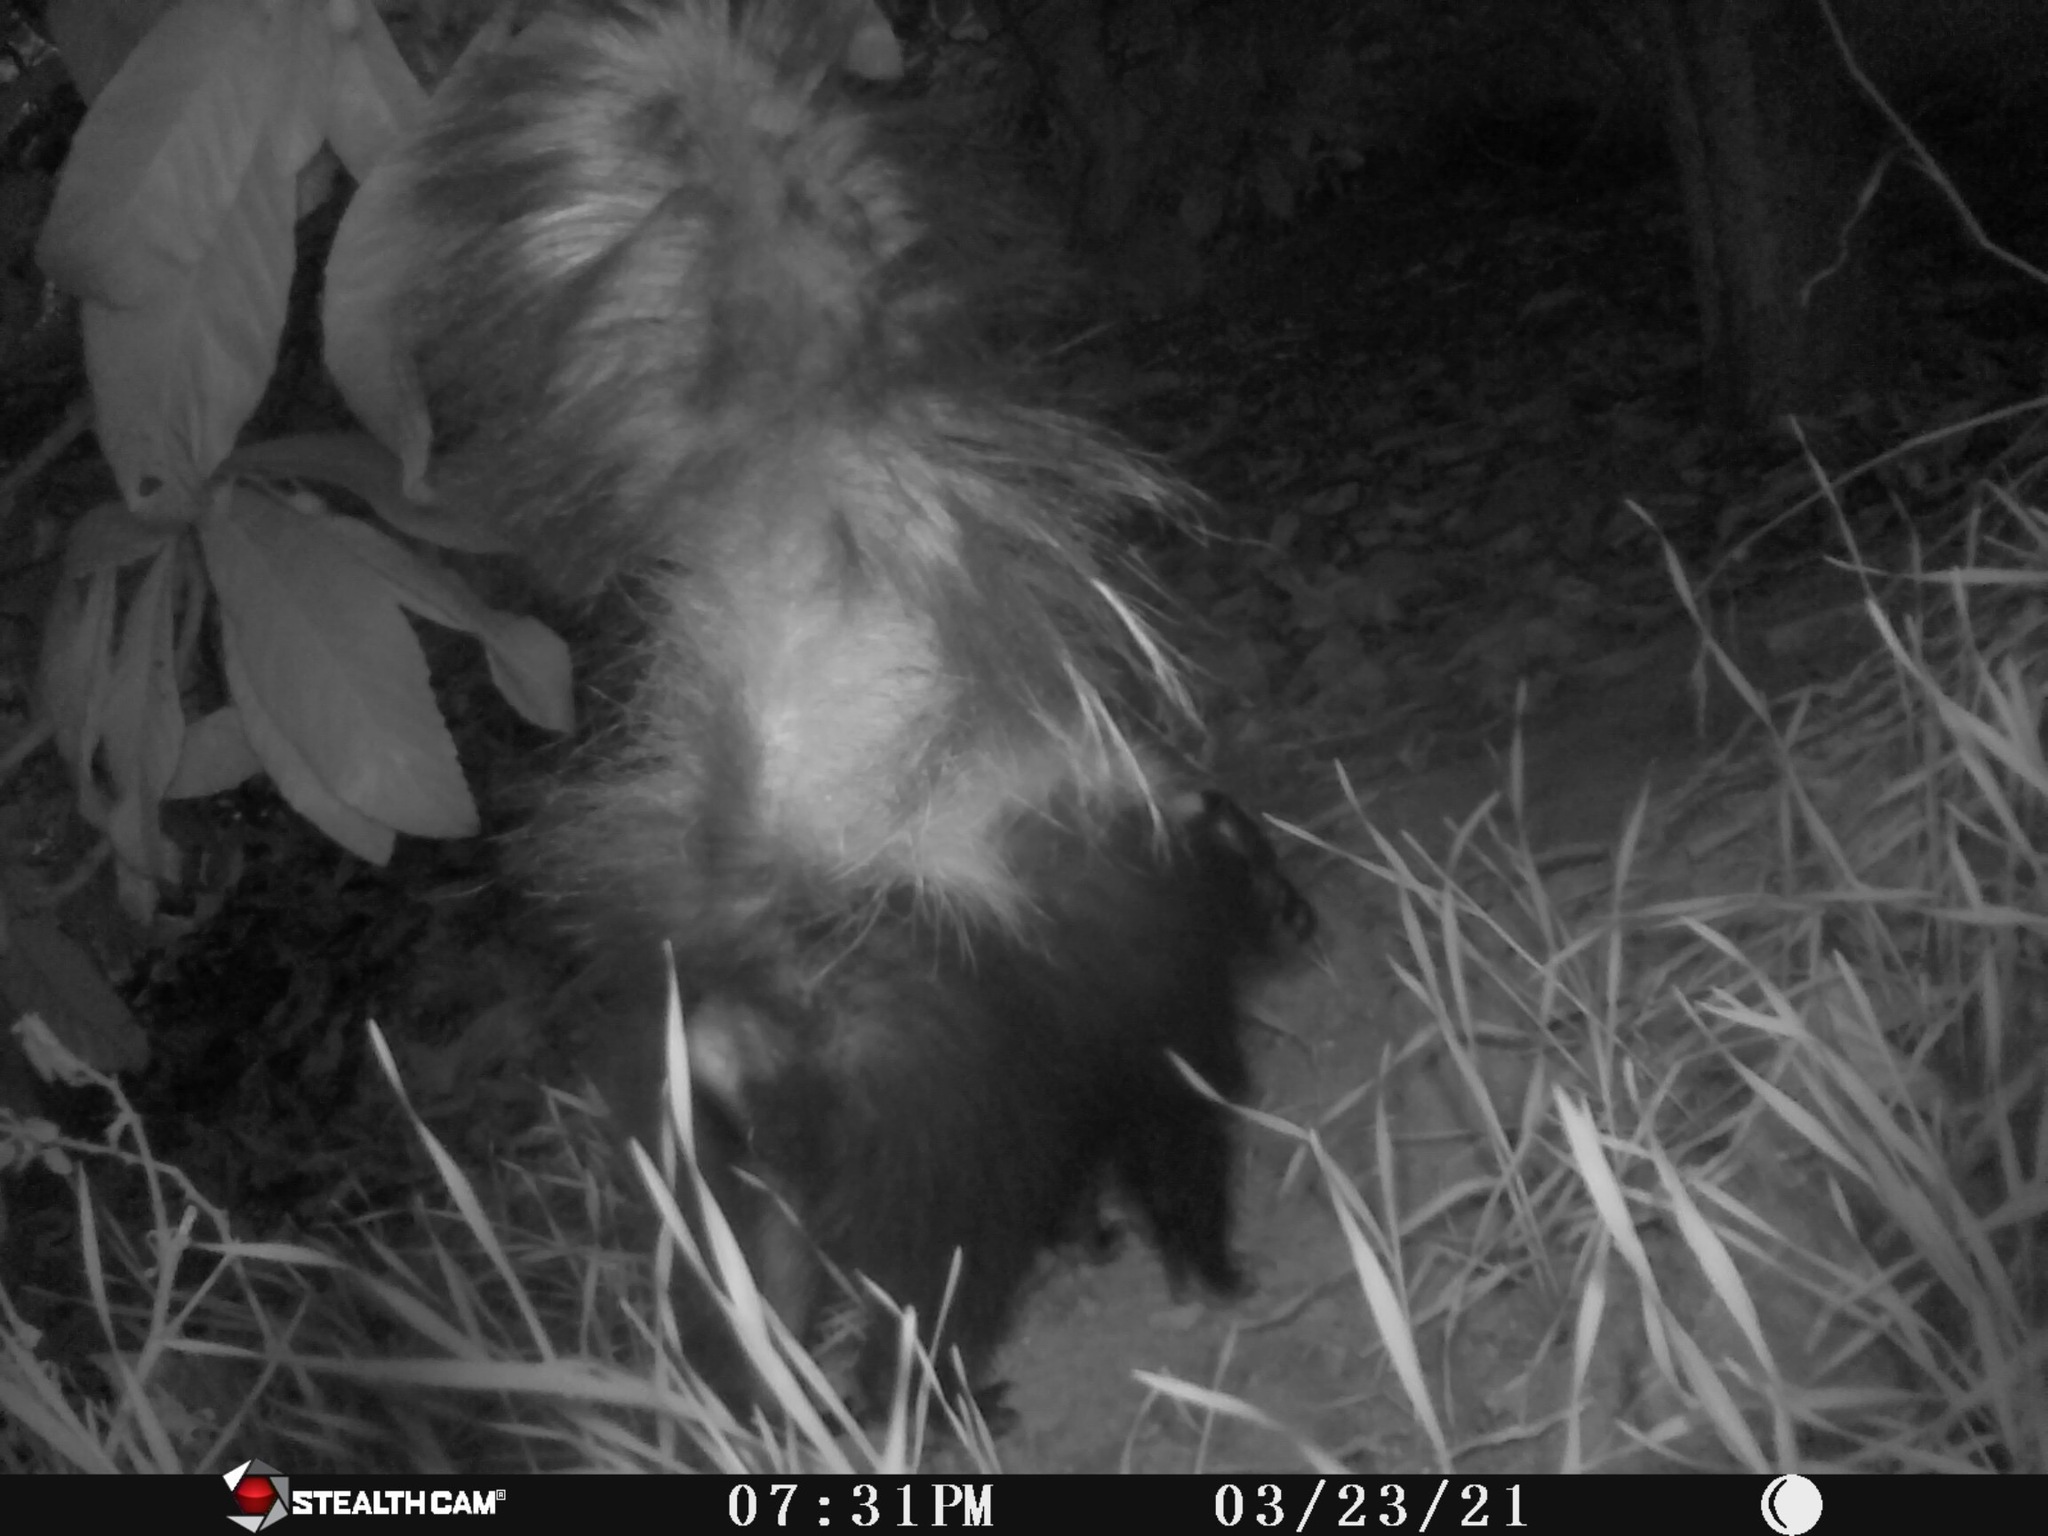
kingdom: Animalia
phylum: Chordata
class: Mammalia
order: Carnivora
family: Mephitidae
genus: Mephitis
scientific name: Mephitis mephitis
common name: Striped skunk
